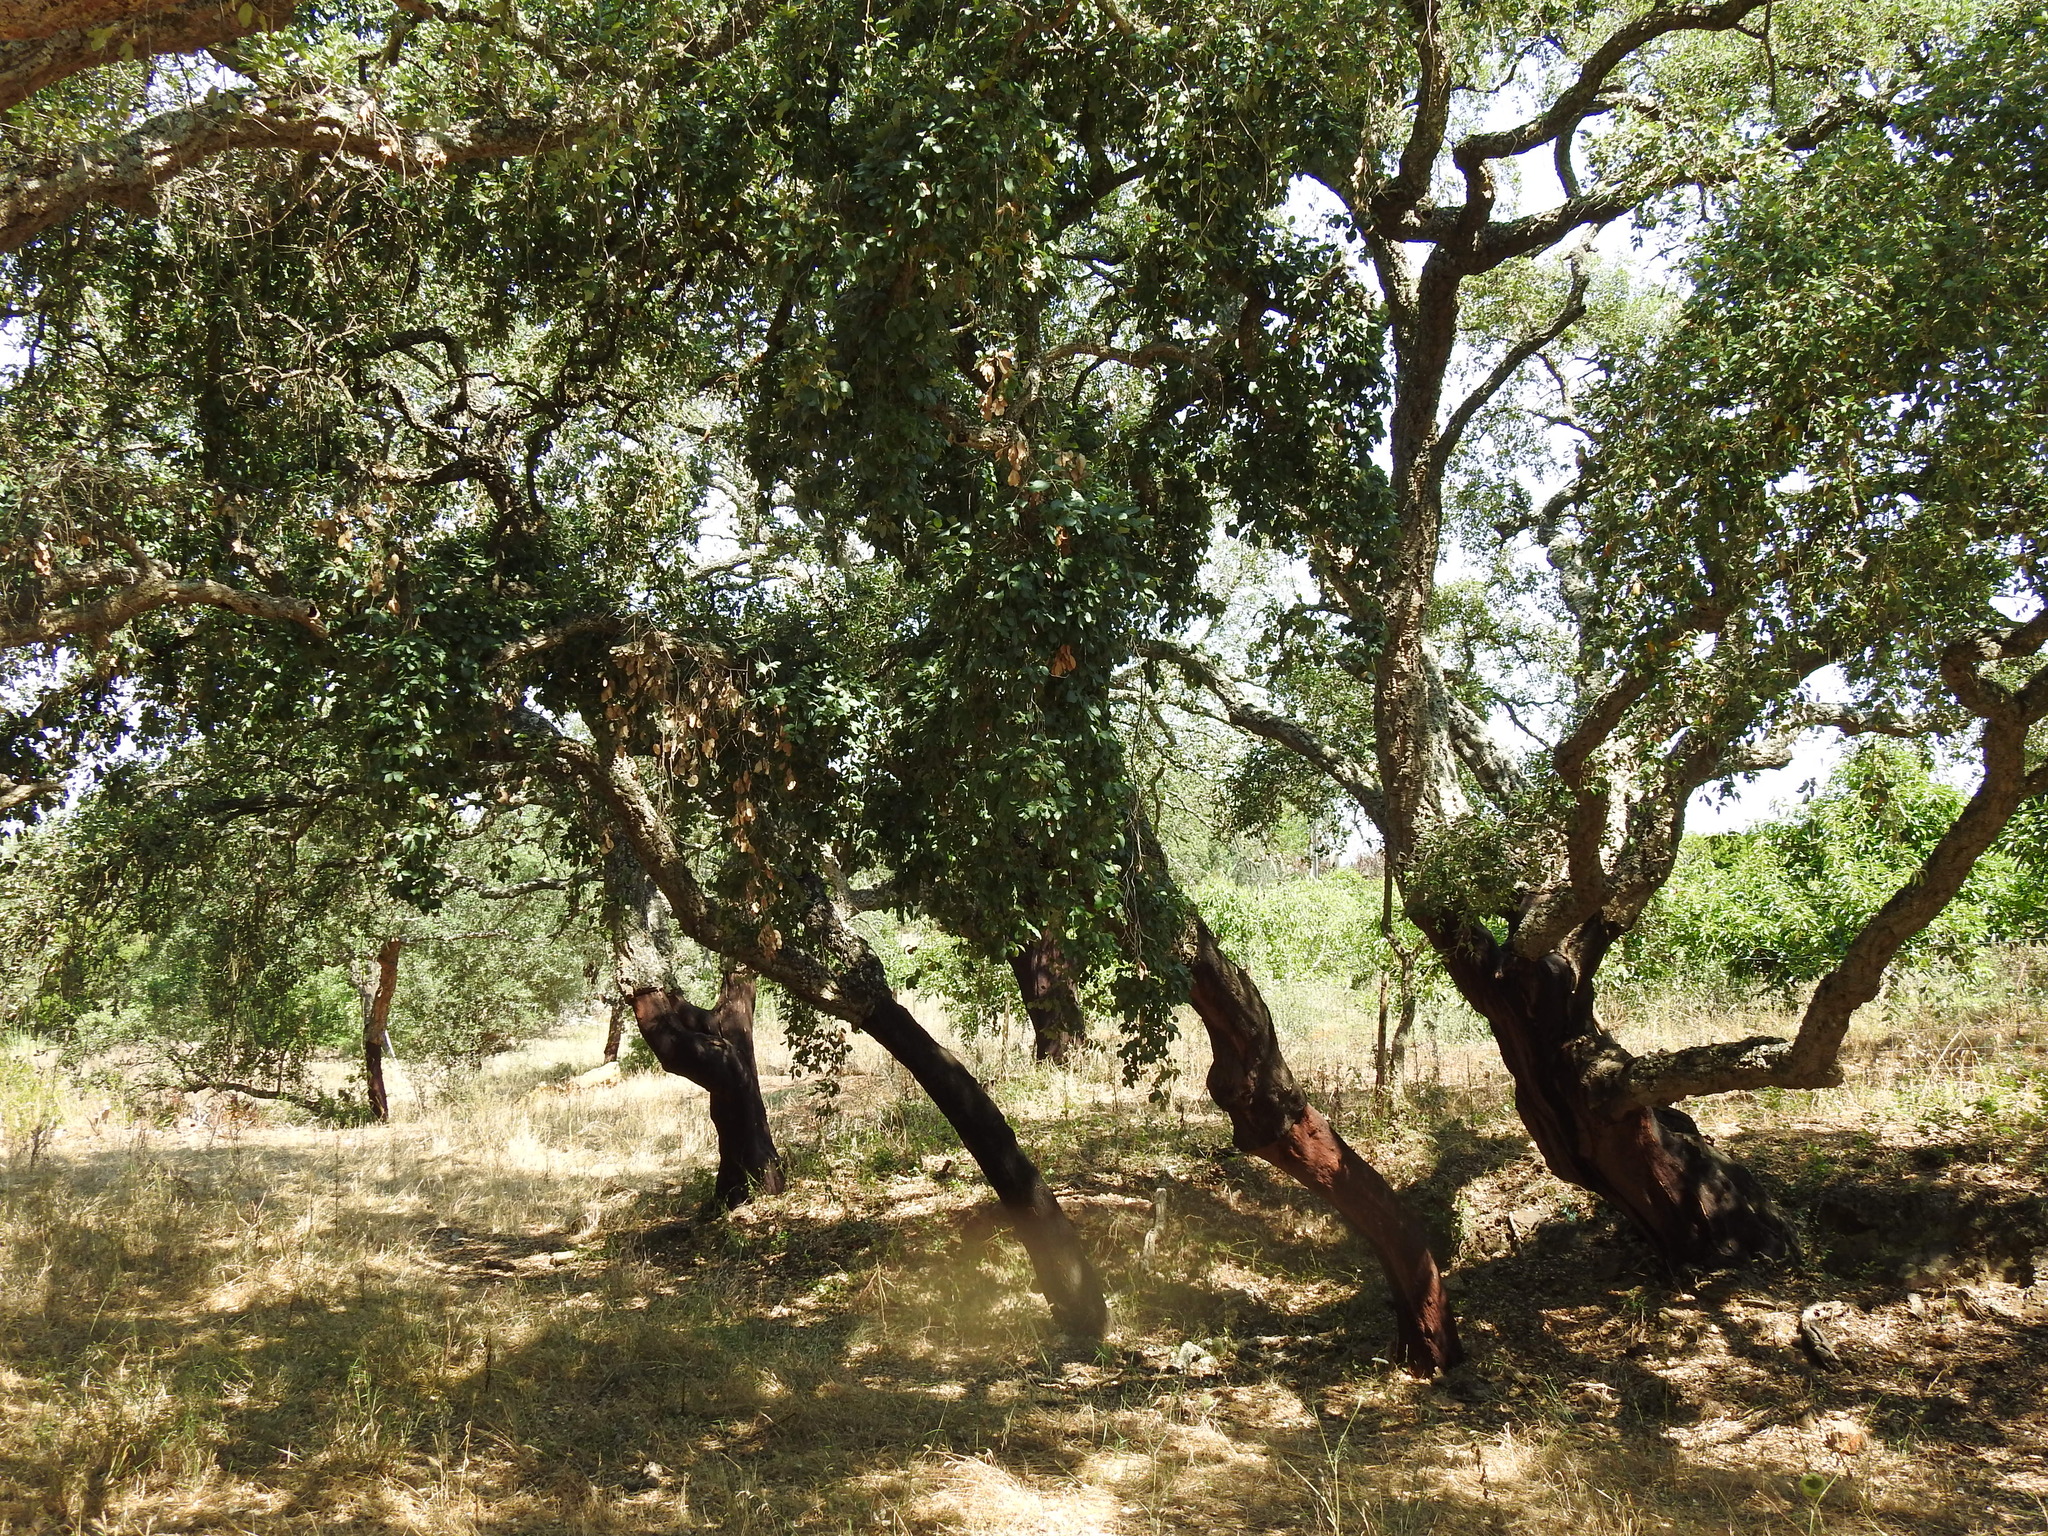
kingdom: Plantae
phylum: Tracheophyta
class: Magnoliopsida
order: Fagales
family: Fagaceae
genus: Quercus
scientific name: Quercus suber
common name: Cork oak
